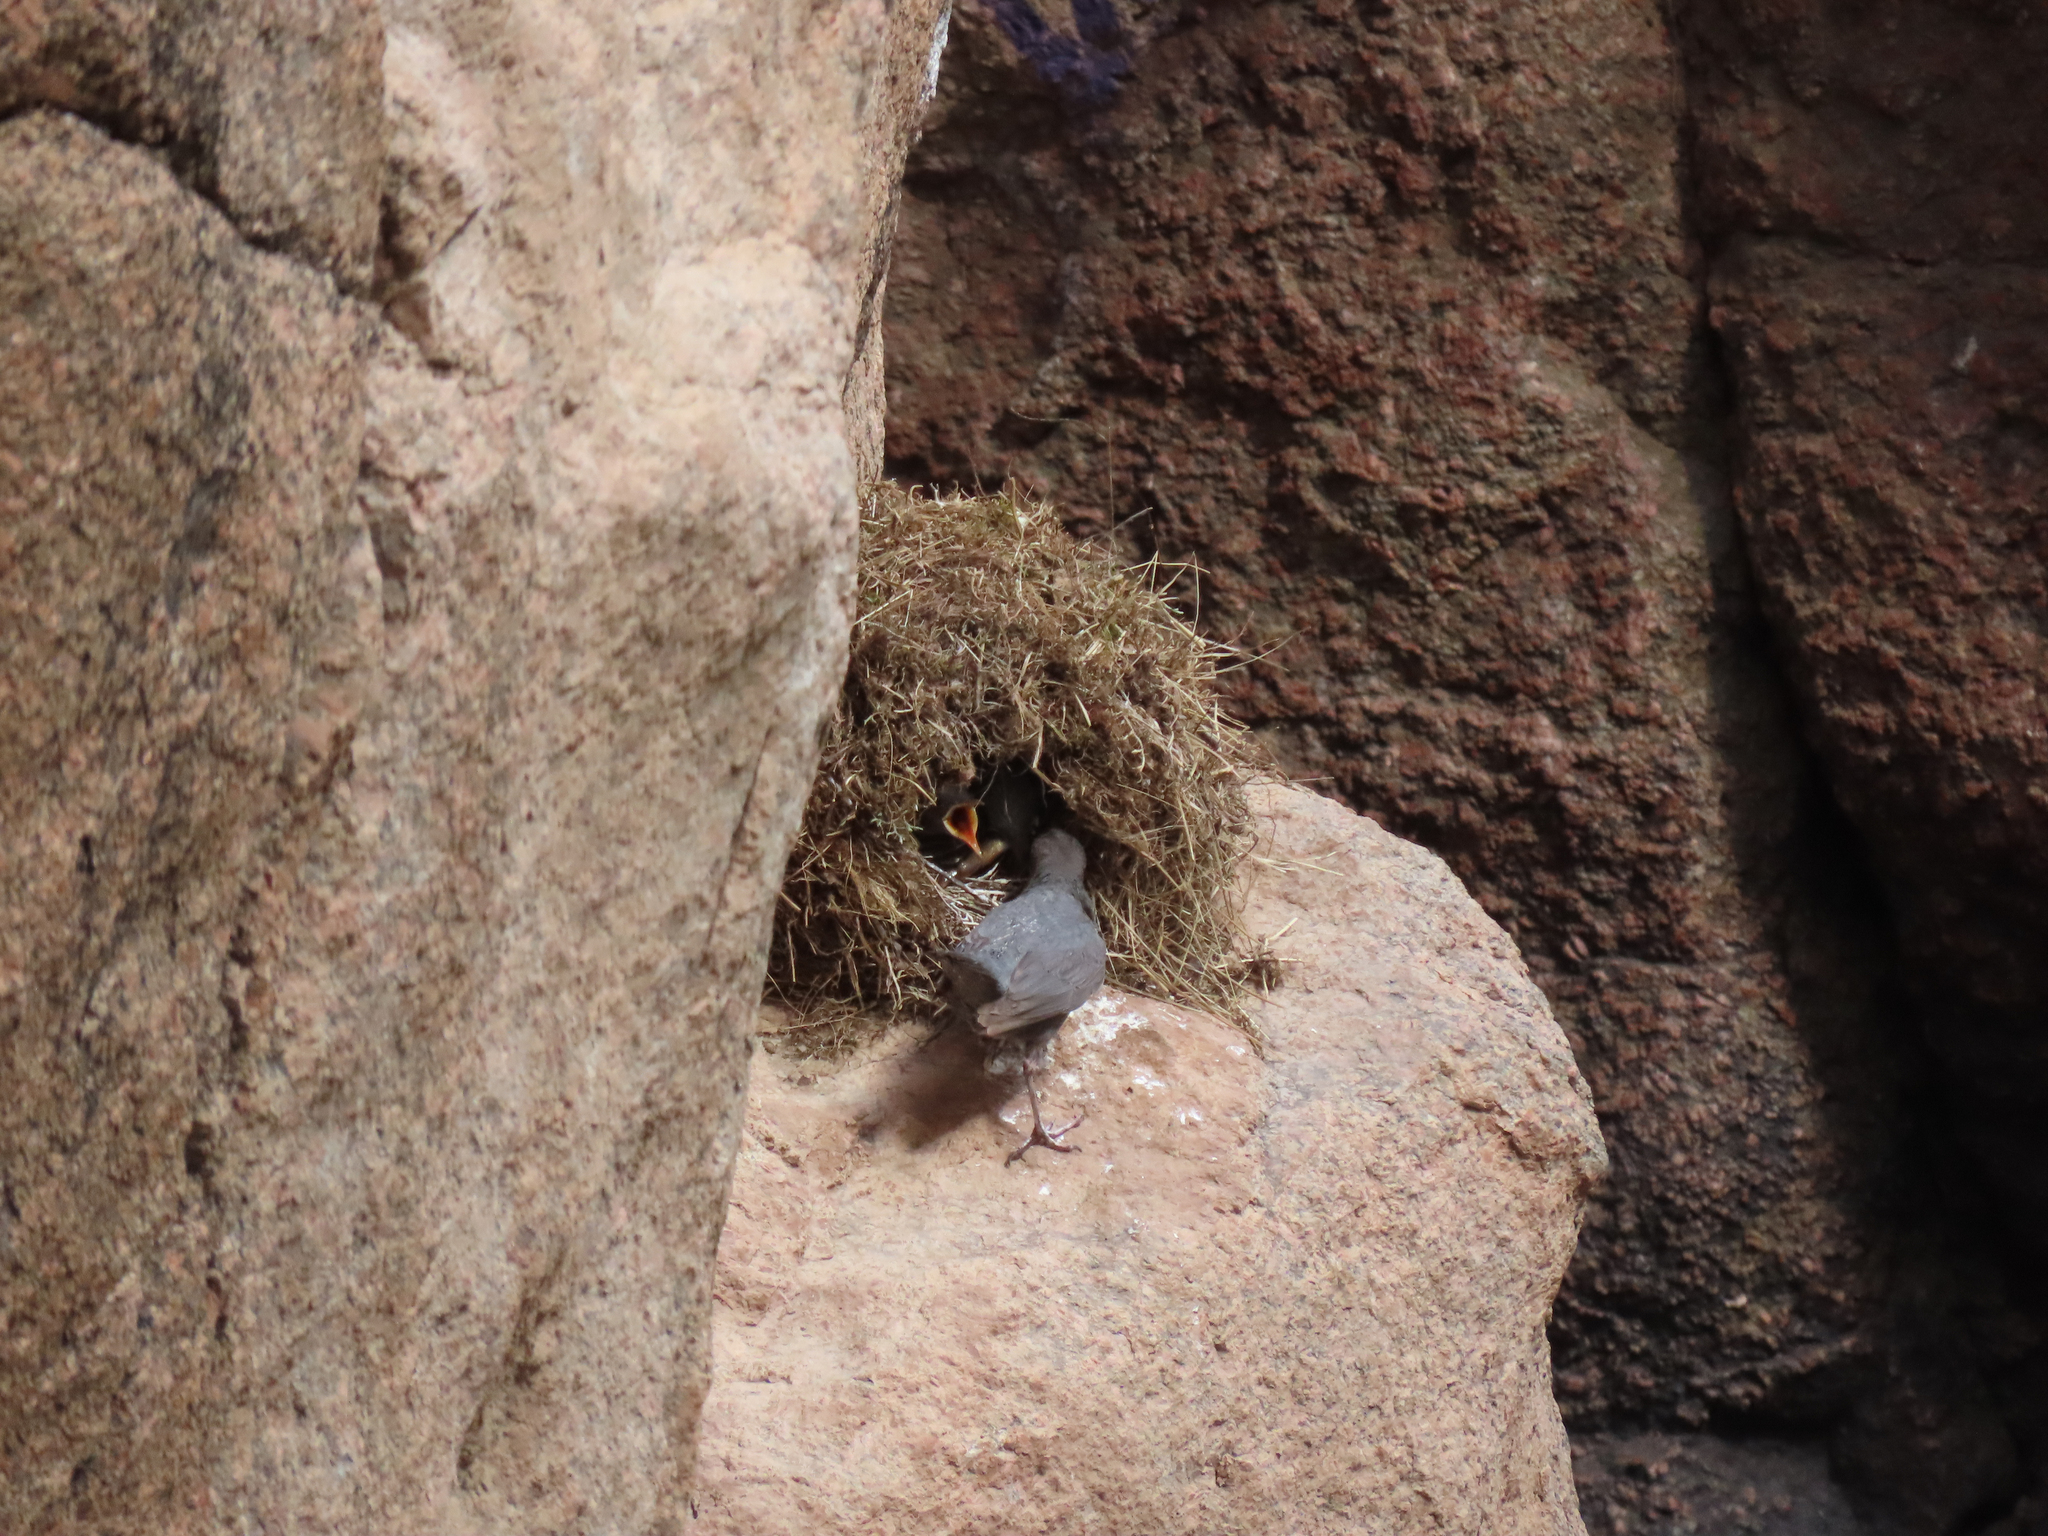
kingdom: Animalia
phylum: Chordata
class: Aves
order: Passeriformes
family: Cinclidae
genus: Cinclus
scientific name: Cinclus mexicanus
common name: American dipper
